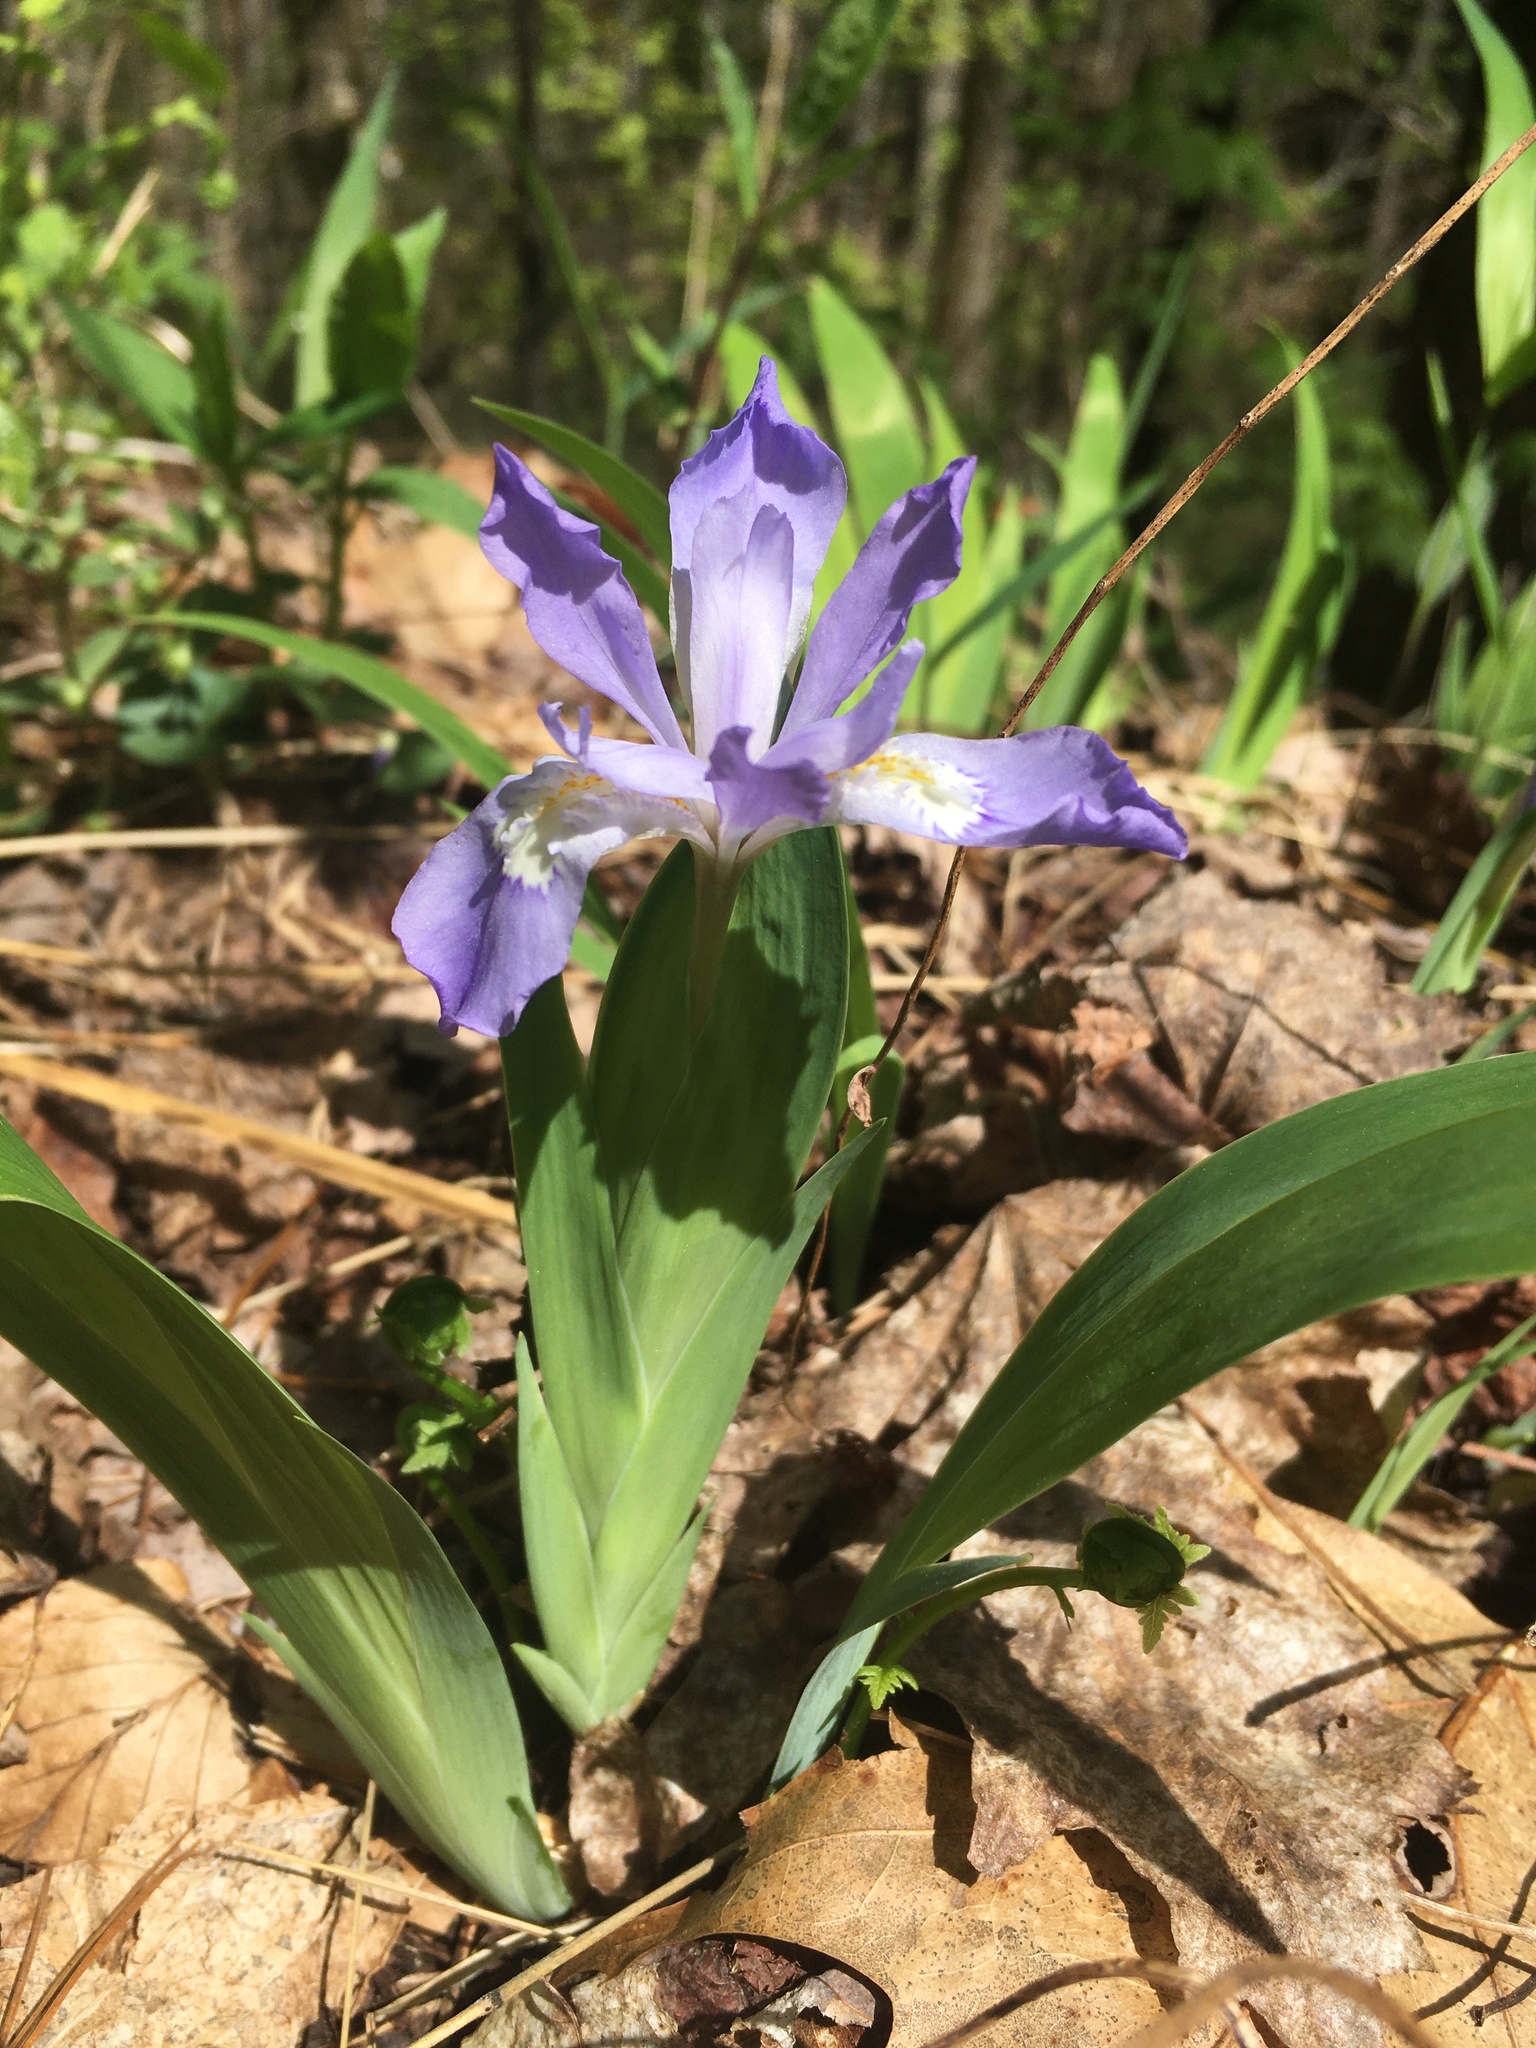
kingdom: Plantae
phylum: Tracheophyta
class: Liliopsida
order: Asparagales
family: Iridaceae
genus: Iris
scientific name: Iris cristata
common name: Crested iris
